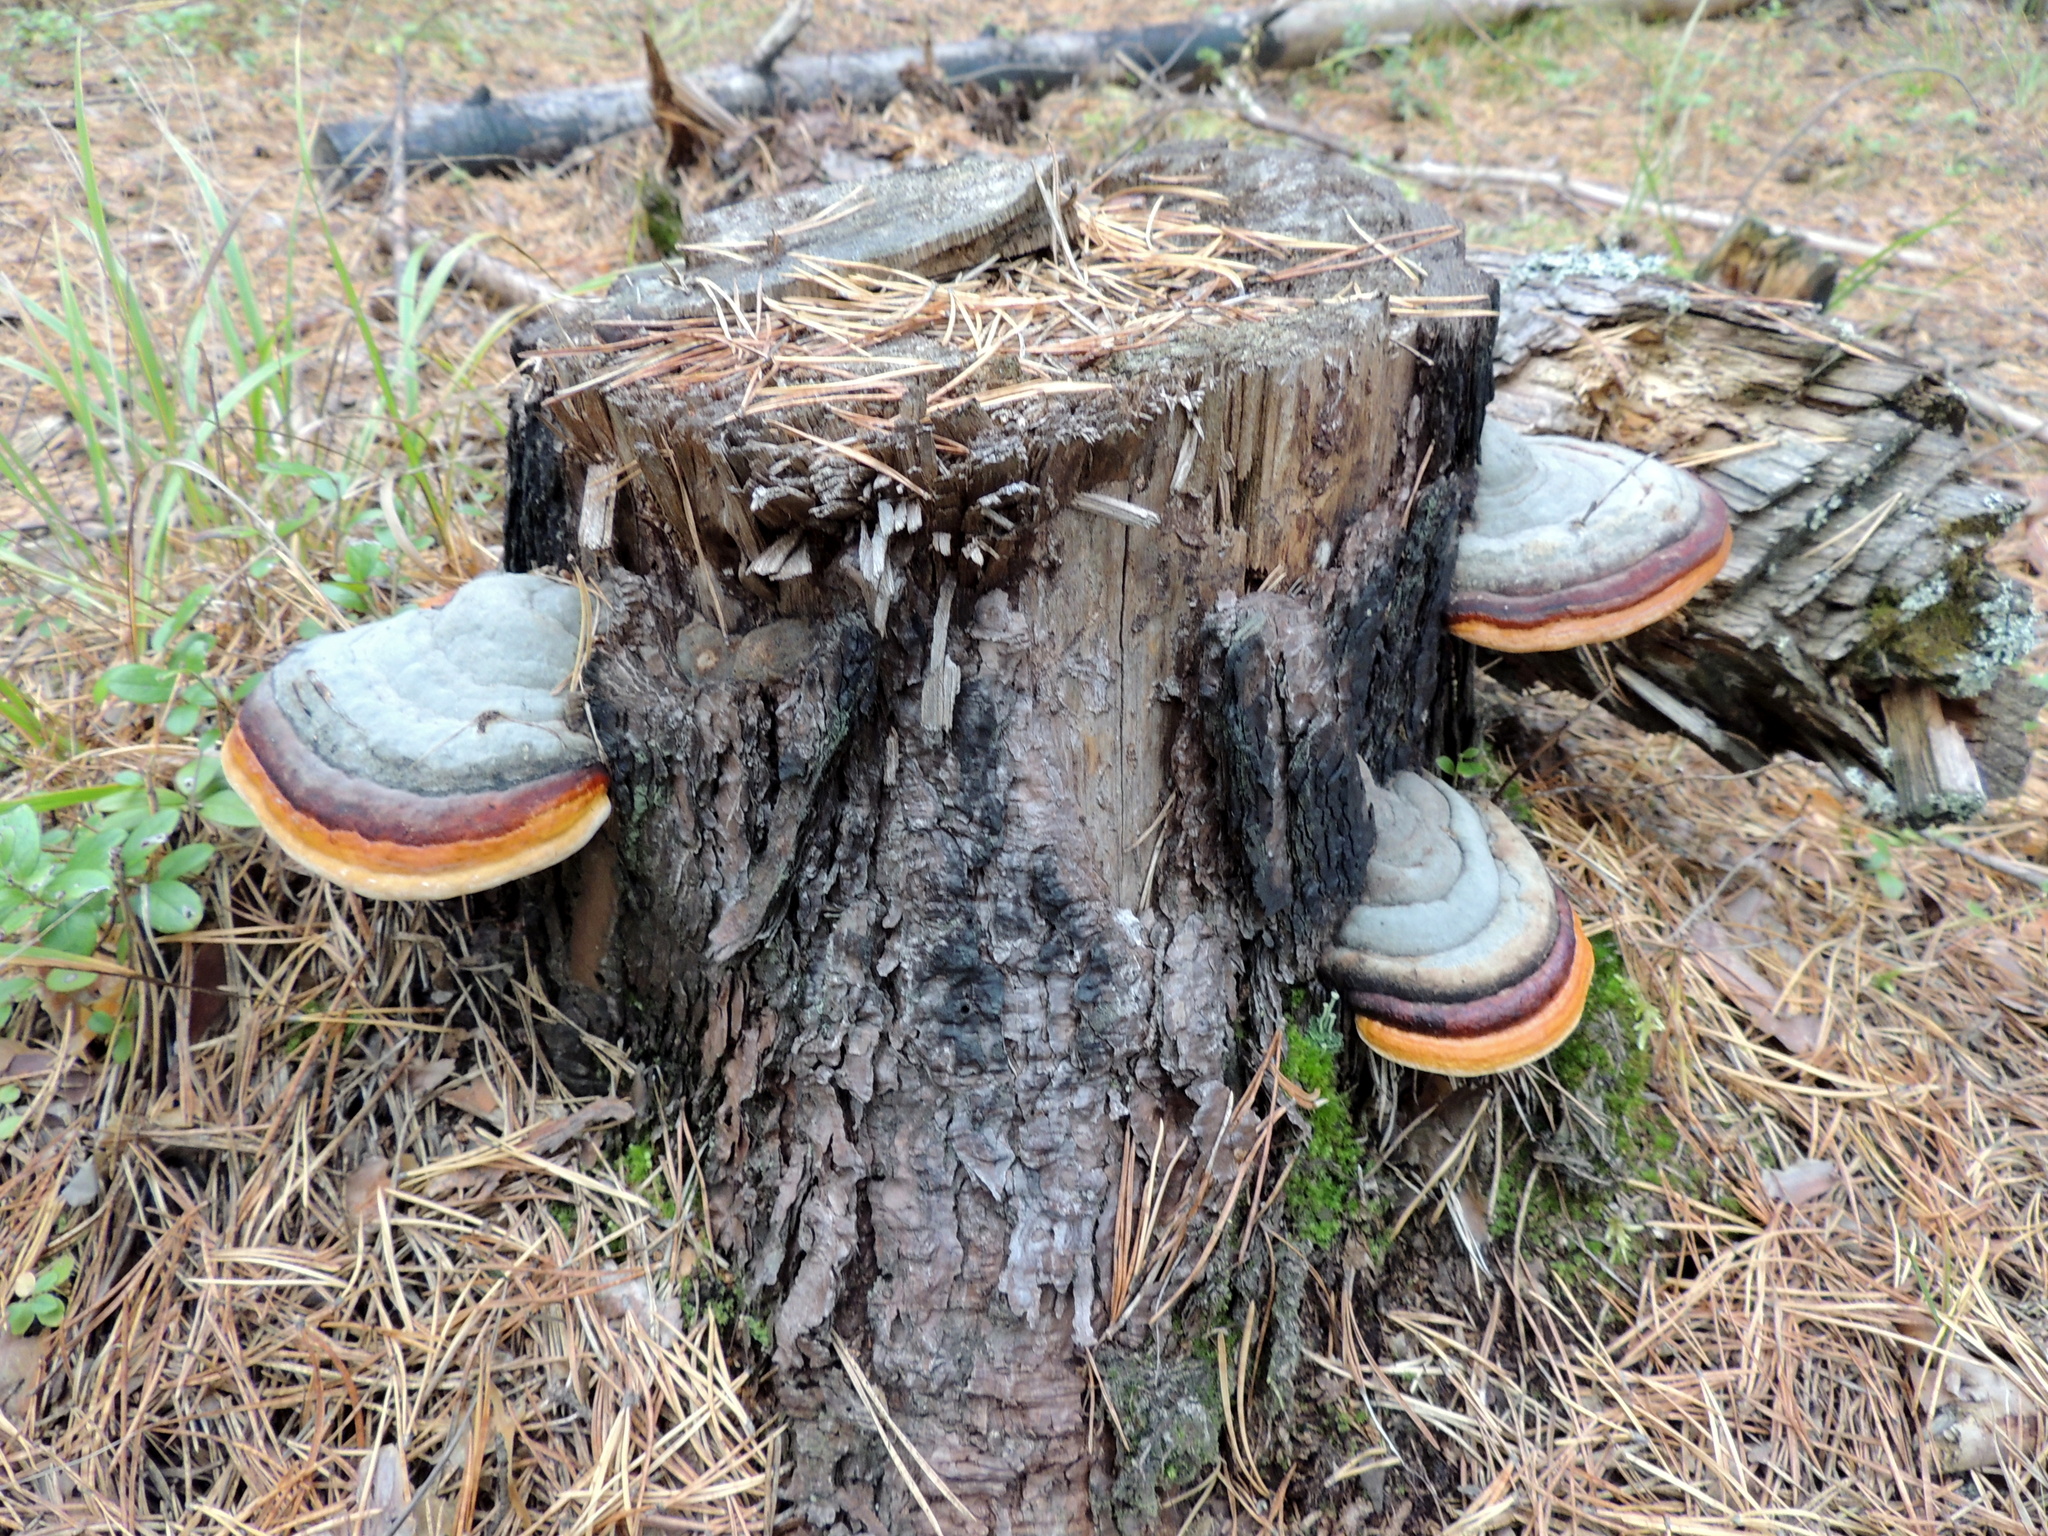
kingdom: Fungi
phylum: Basidiomycota
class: Agaricomycetes
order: Polyporales
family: Fomitopsidaceae
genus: Fomitopsis
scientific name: Fomitopsis pinicola
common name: Red-belted bracket
